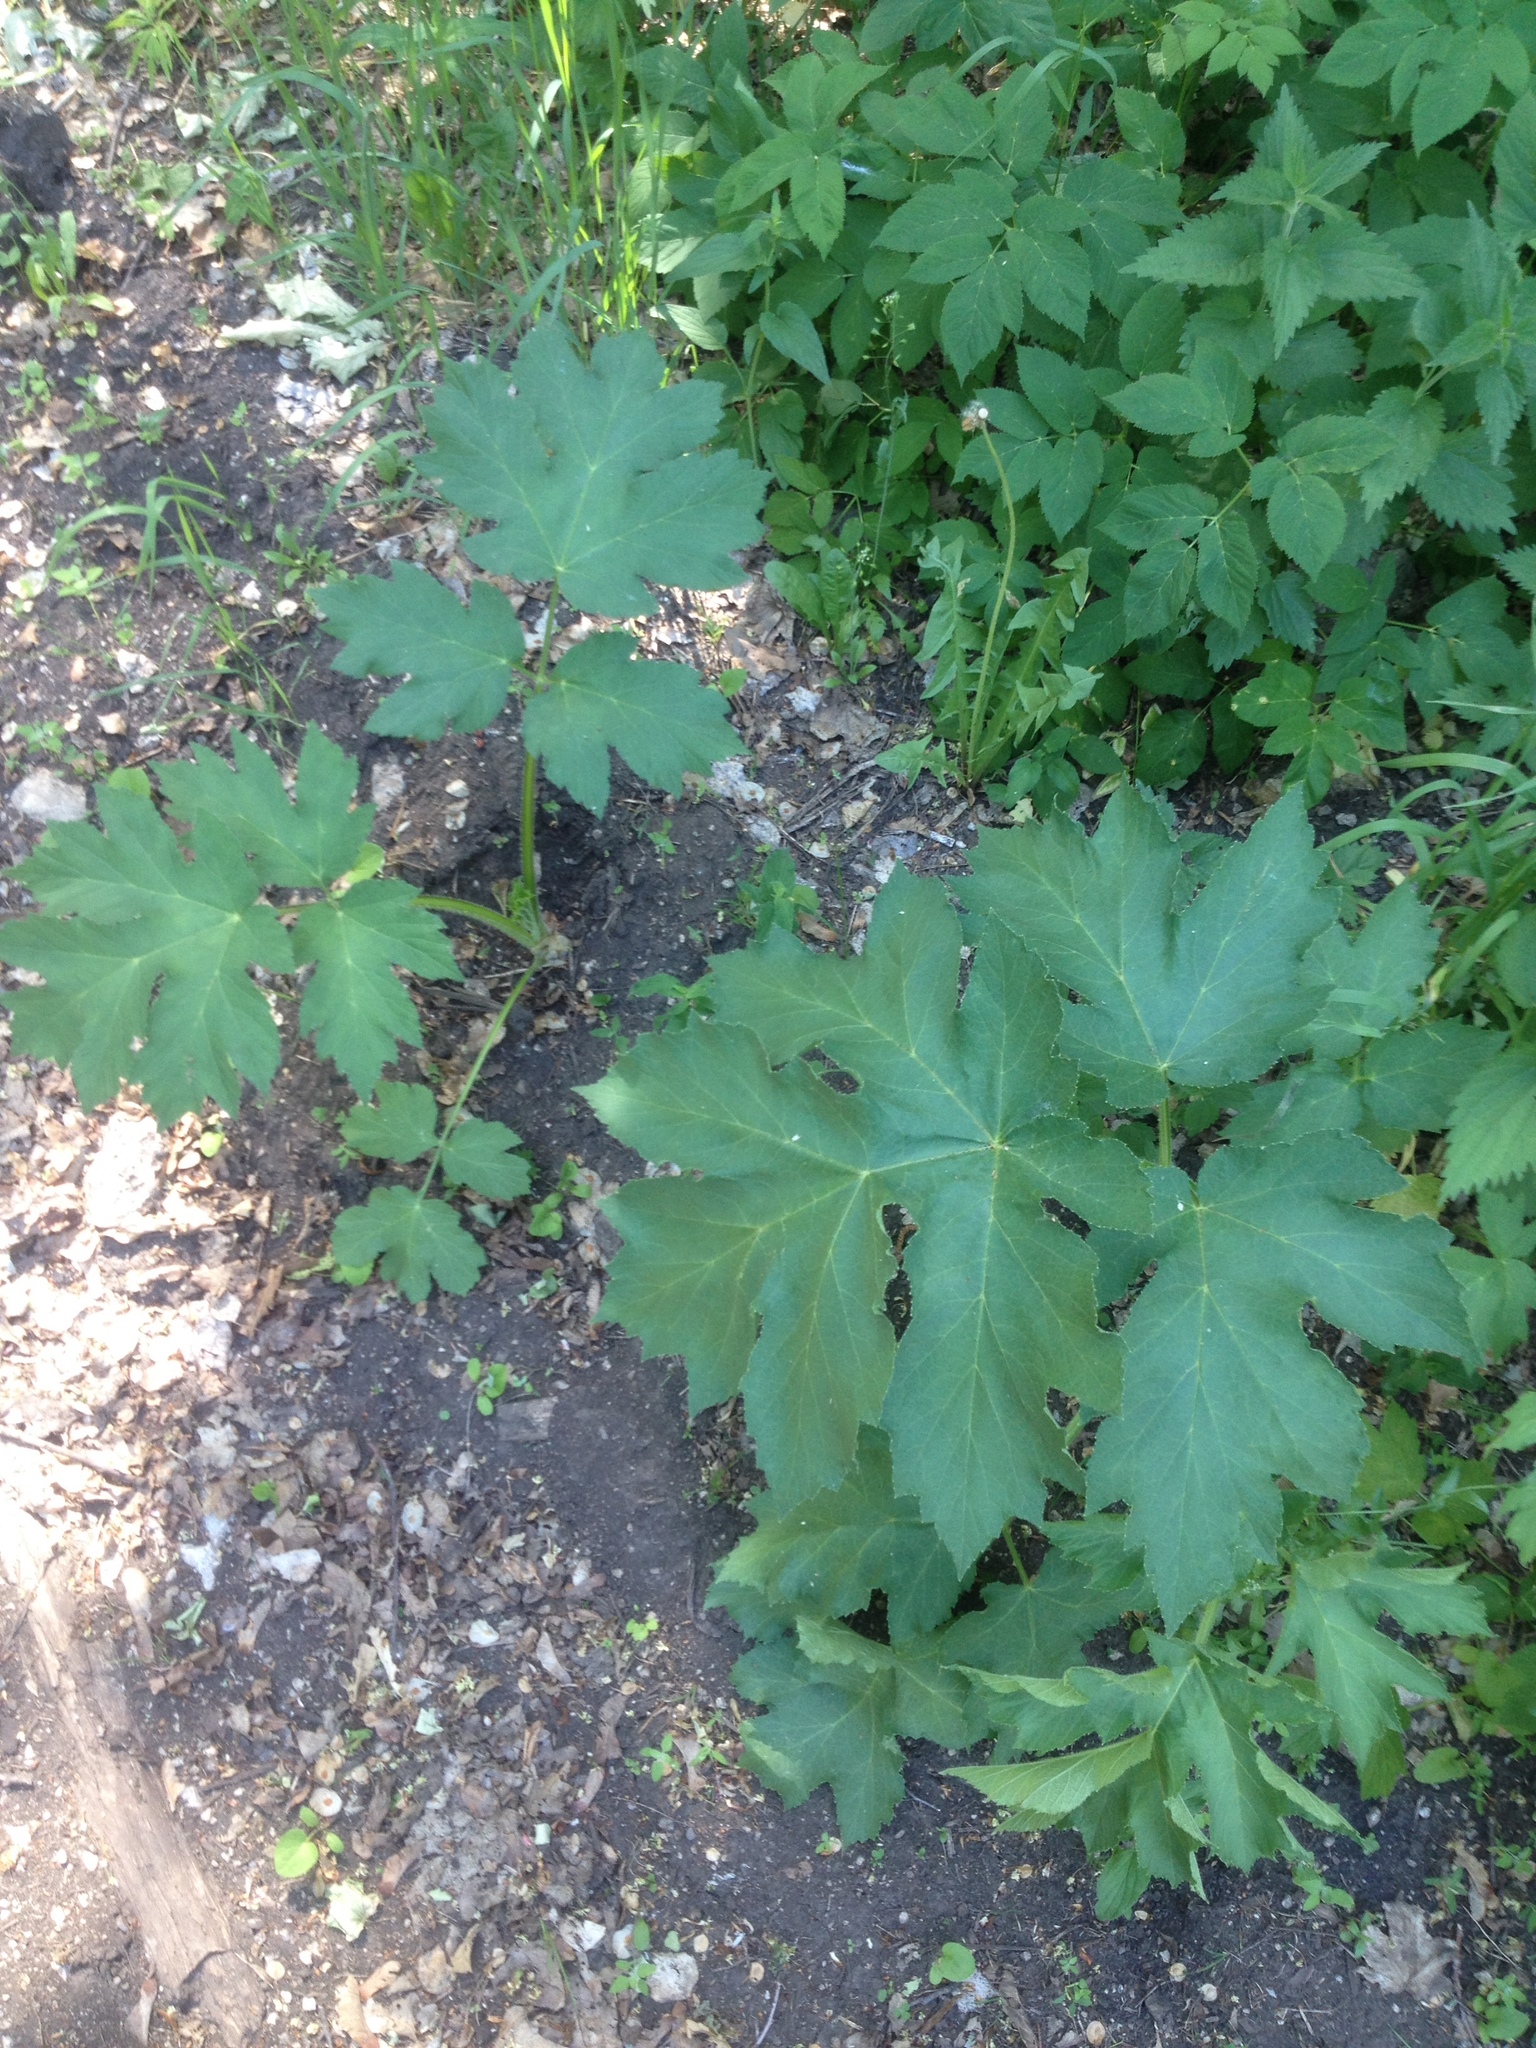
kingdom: Plantae
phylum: Tracheophyta
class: Magnoliopsida
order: Apiales
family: Apiaceae
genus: Heracleum
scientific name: Heracleum sphondylium
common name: Hogweed
